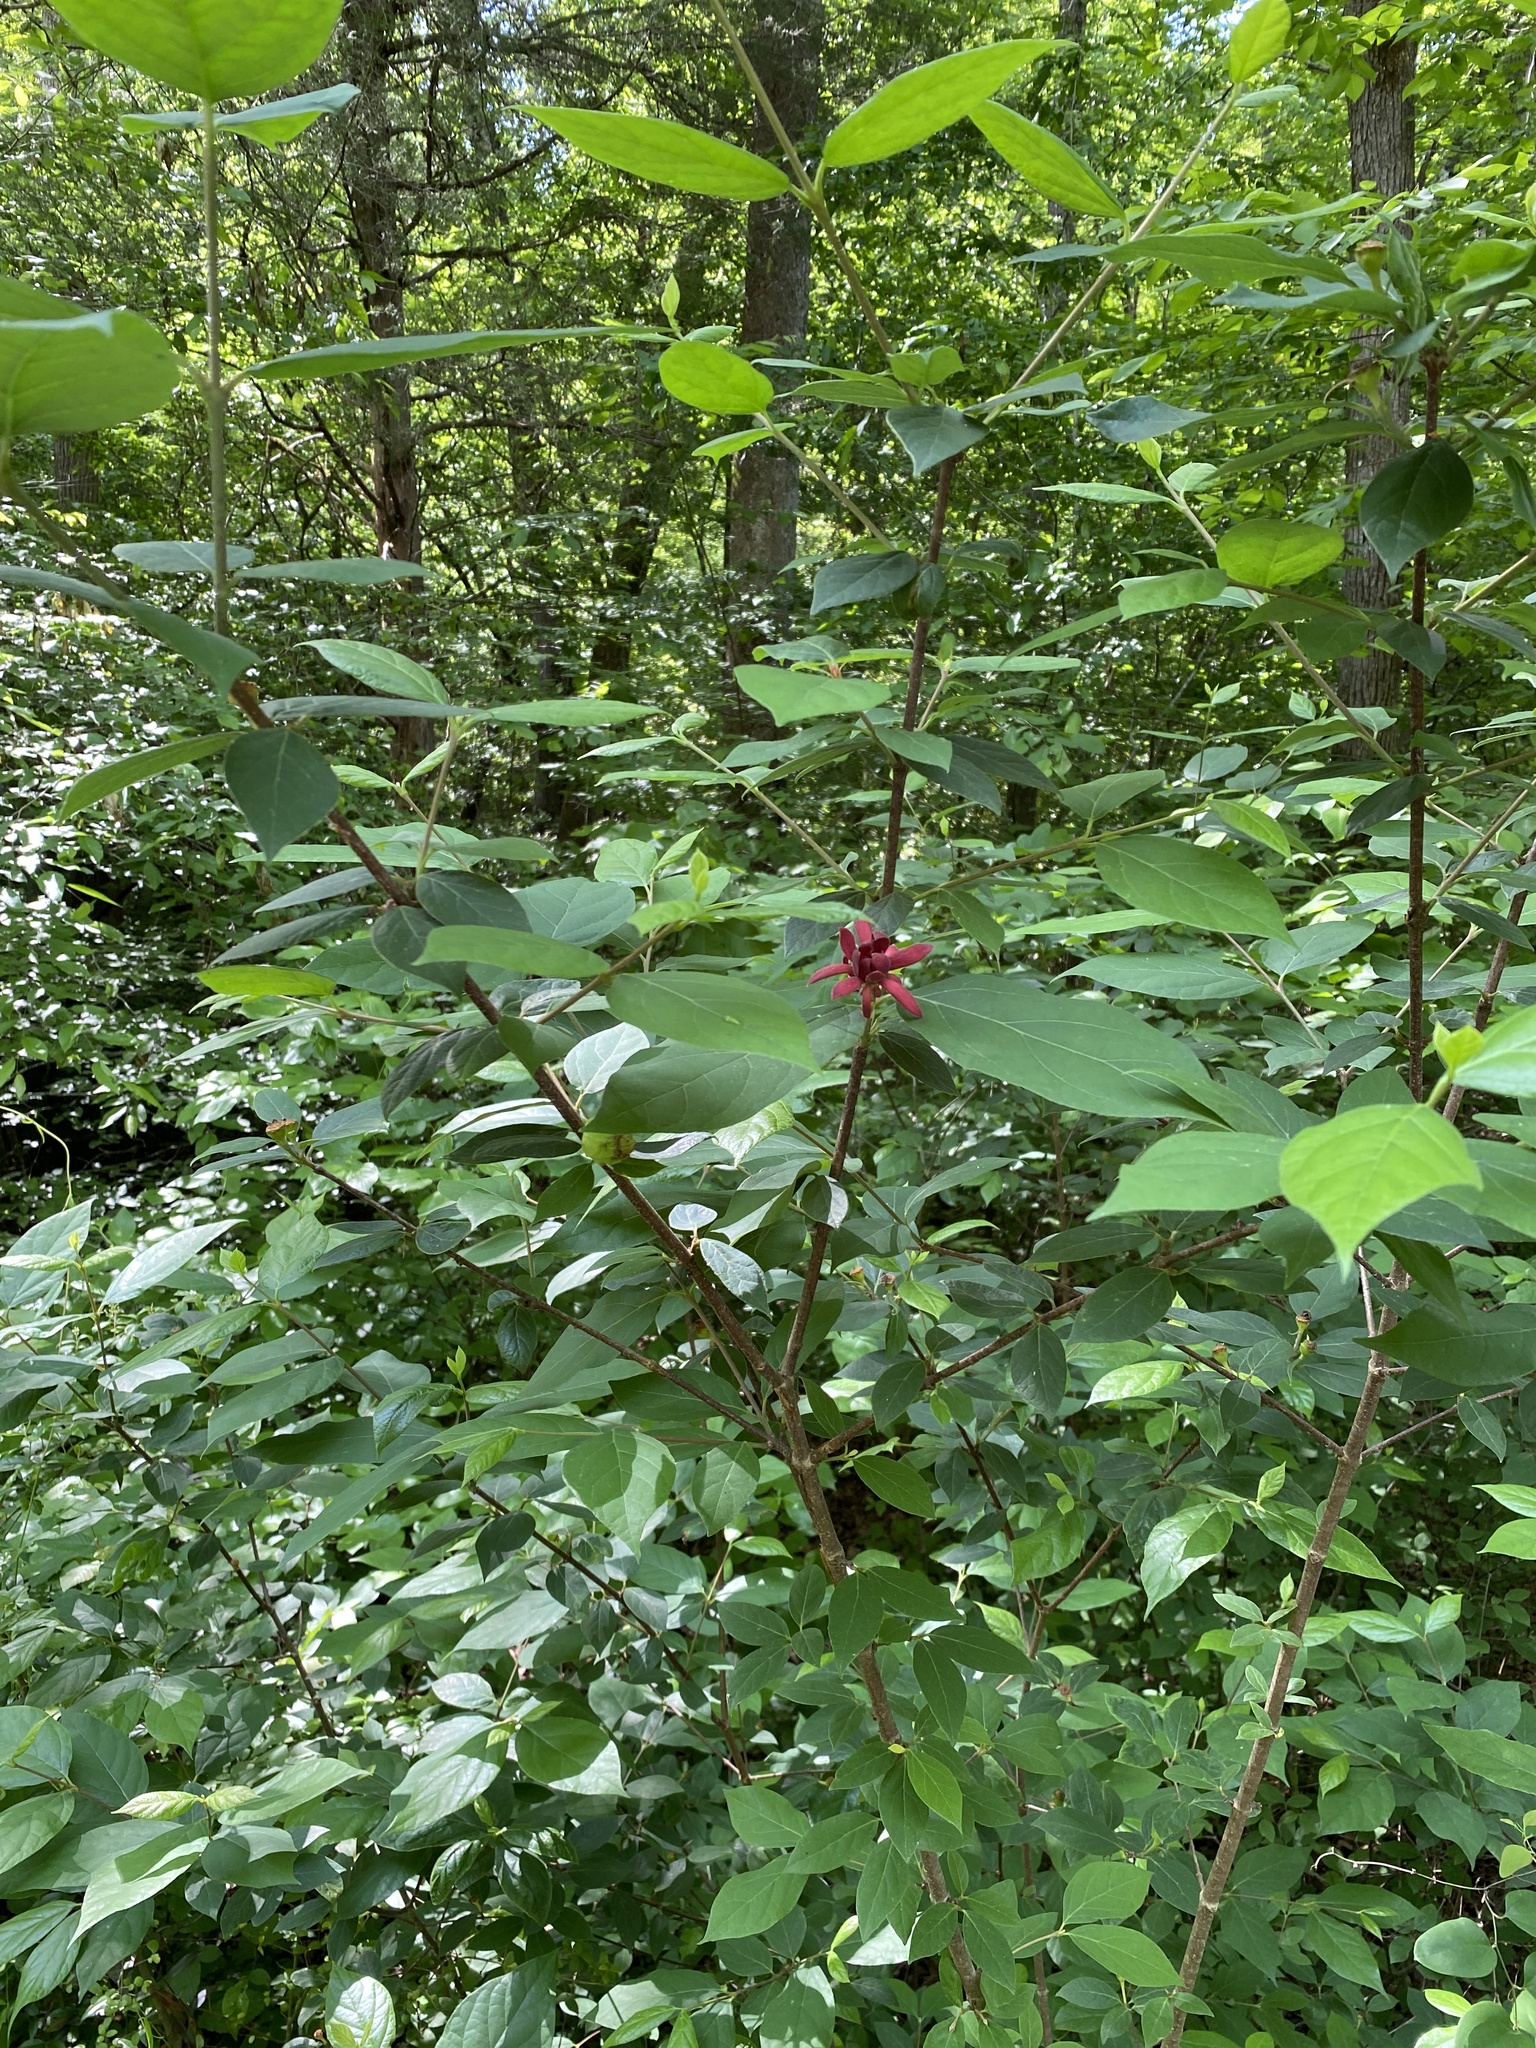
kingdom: Plantae
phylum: Tracheophyta
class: Magnoliopsida
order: Laurales
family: Calycanthaceae
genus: Calycanthus
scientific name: Calycanthus floridus
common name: Carolina-allspice
